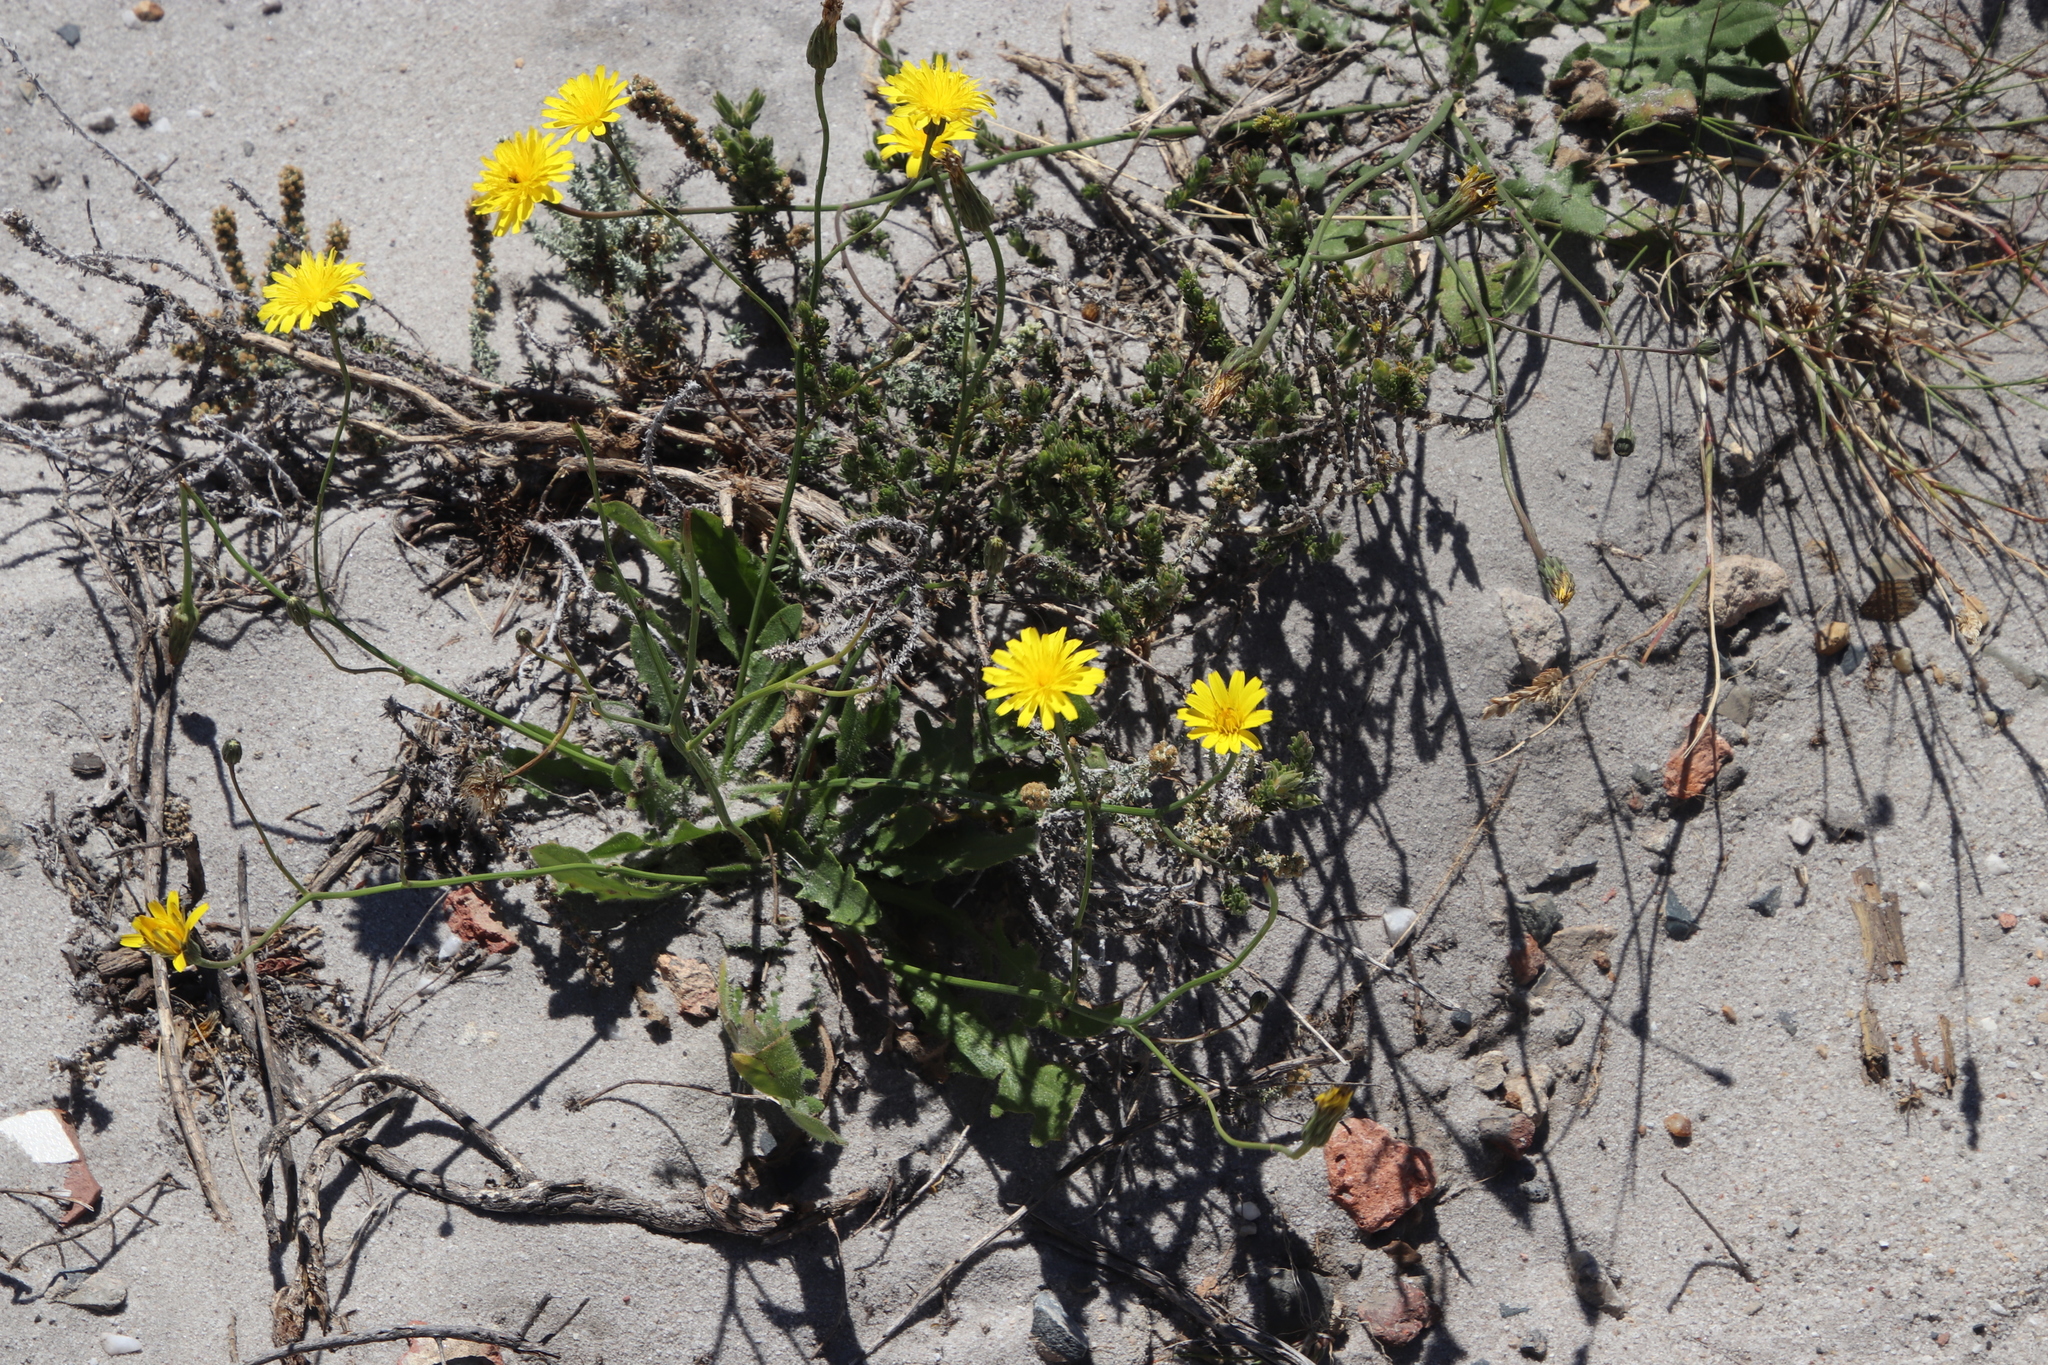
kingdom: Plantae
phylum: Tracheophyta
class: Magnoliopsida
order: Asterales
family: Asteraceae
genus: Hypochaeris
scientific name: Hypochaeris radicata
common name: Flatweed
